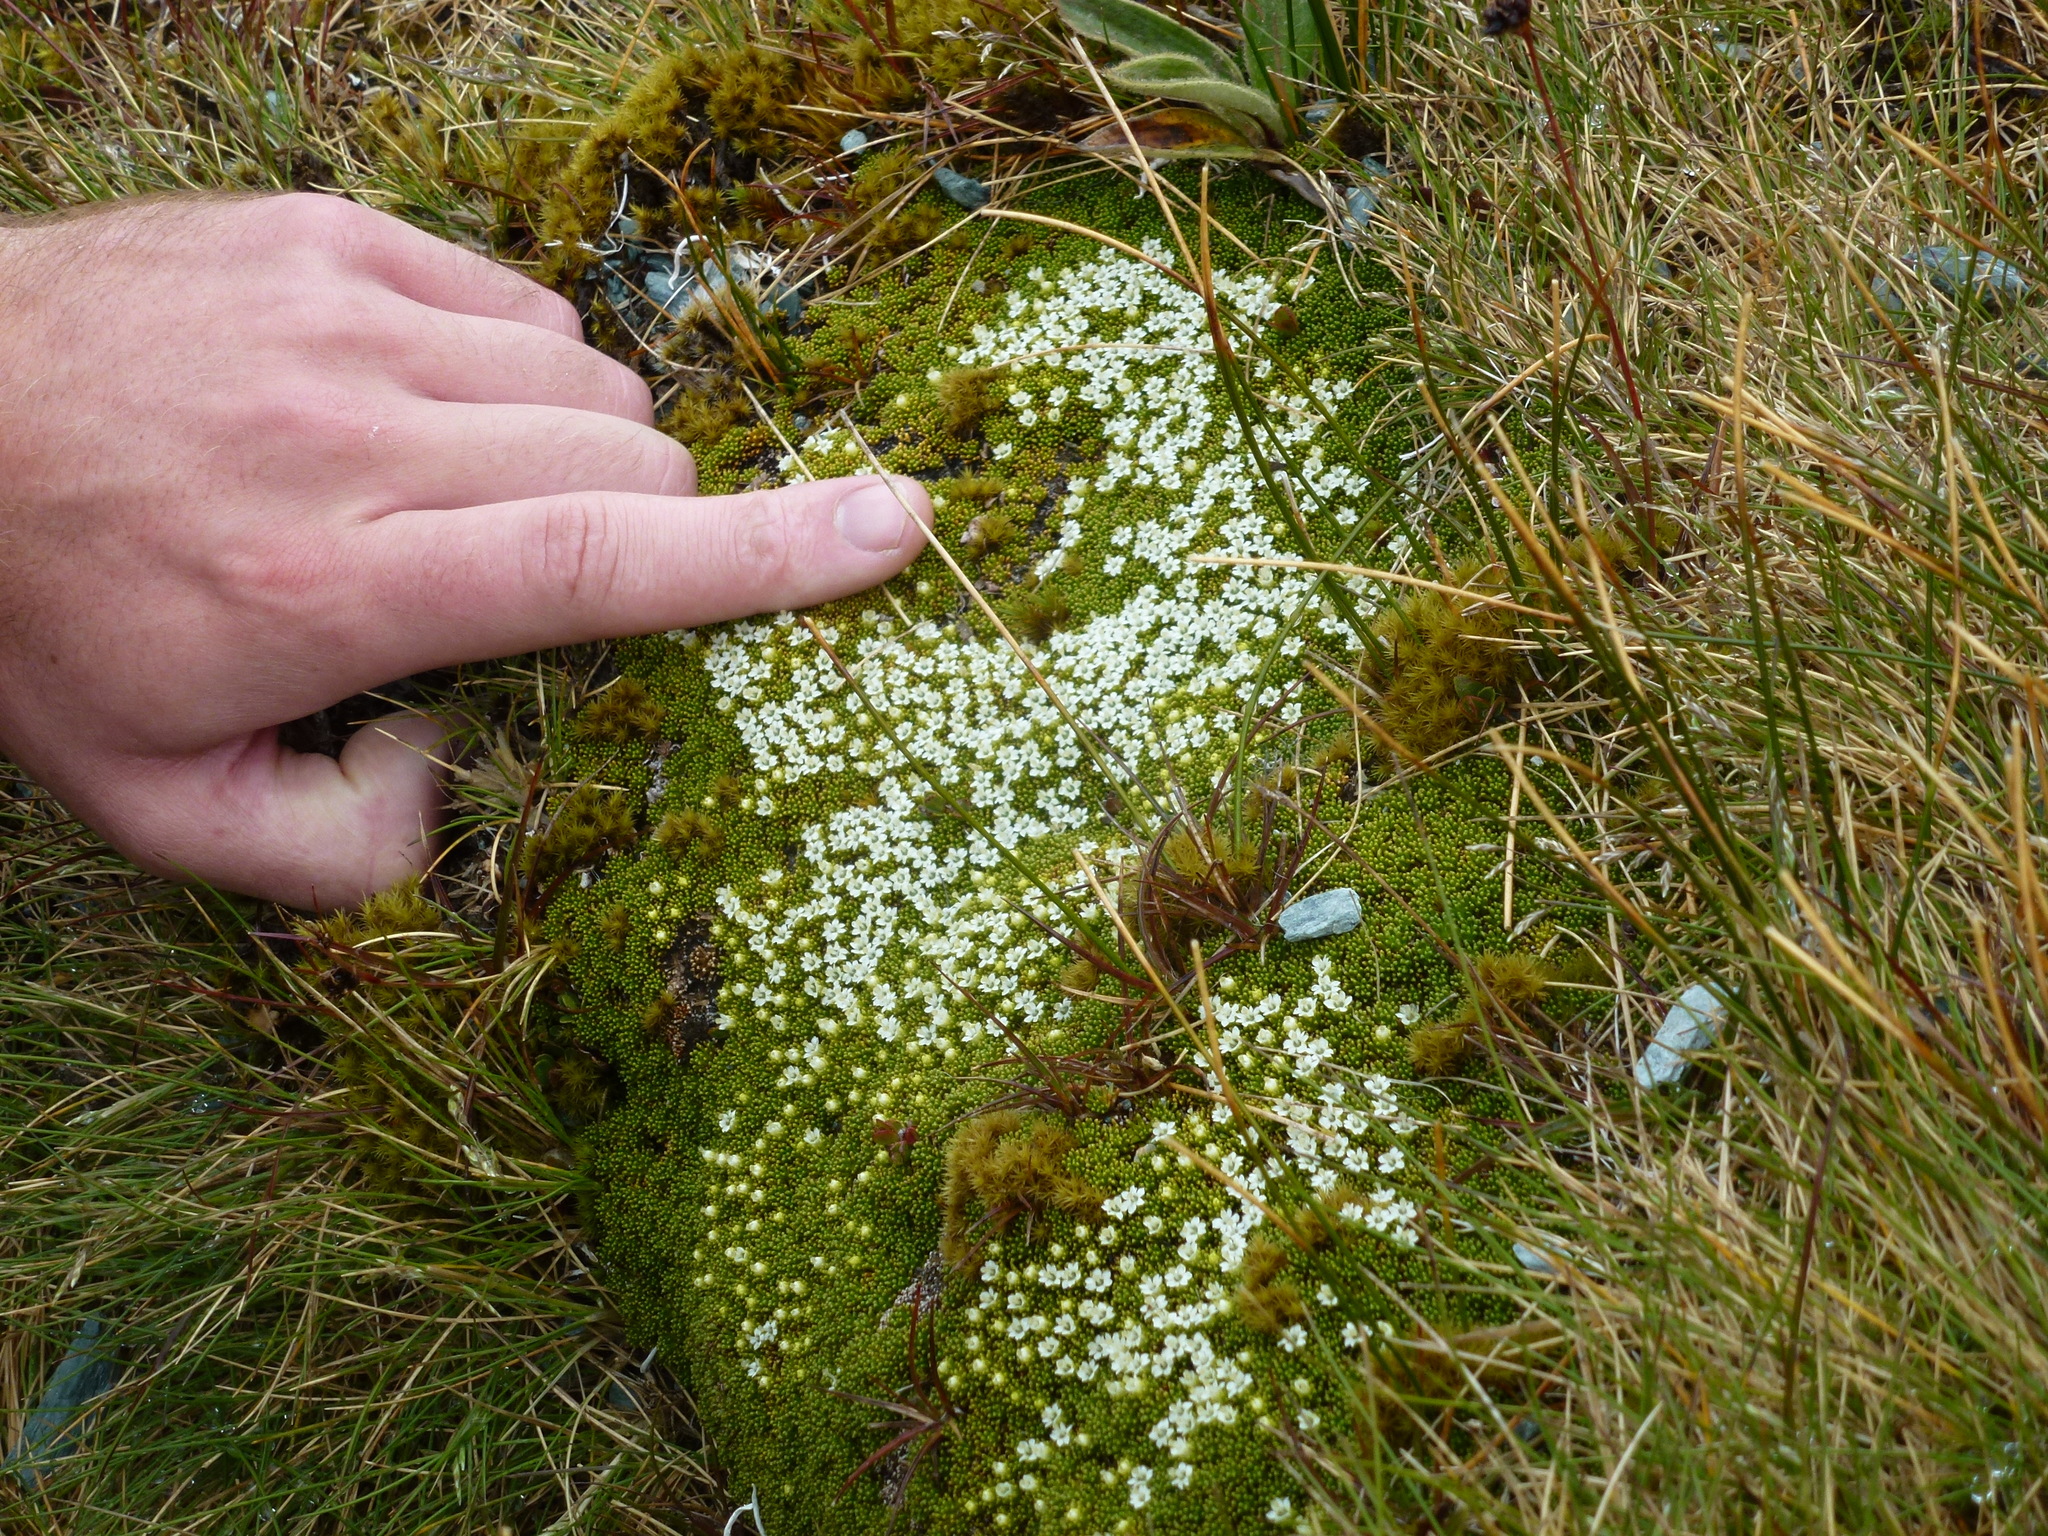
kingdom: Plantae
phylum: Tracheophyta
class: Magnoliopsida
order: Asterales
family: Stylidiaceae
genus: Phyllachne
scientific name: Phyllachne colensoi
